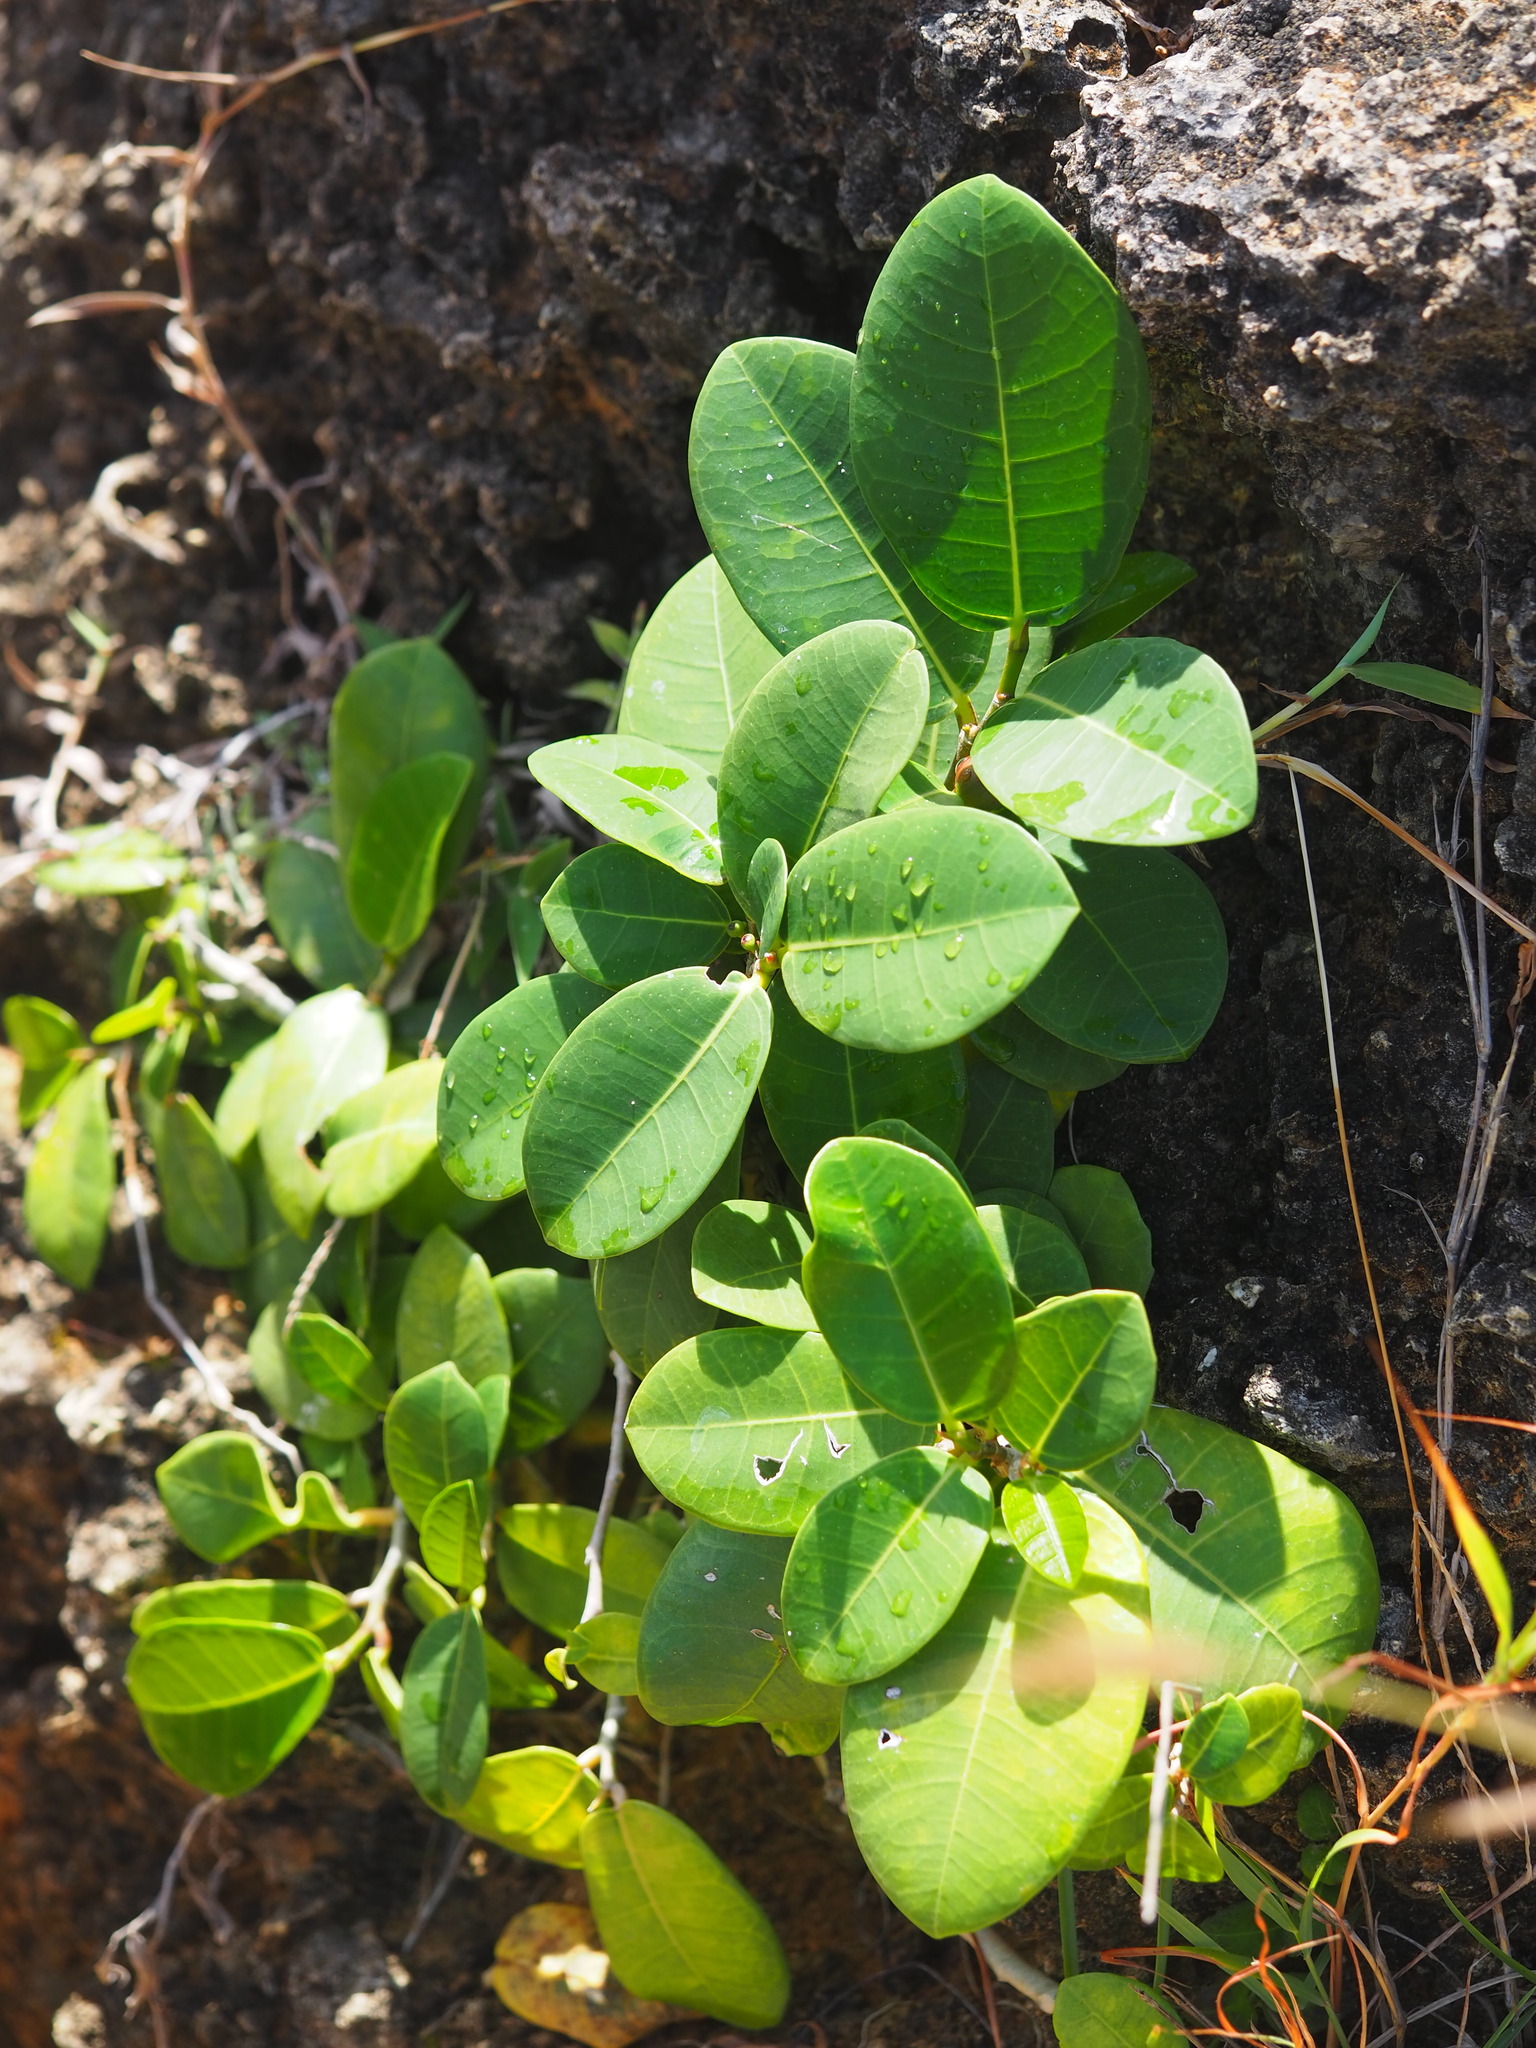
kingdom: Plantae
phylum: Tracheophyta
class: Magnoliopsida
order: Rosales
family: Moraceae
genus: Ficus
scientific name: Ficus pedunculosa
